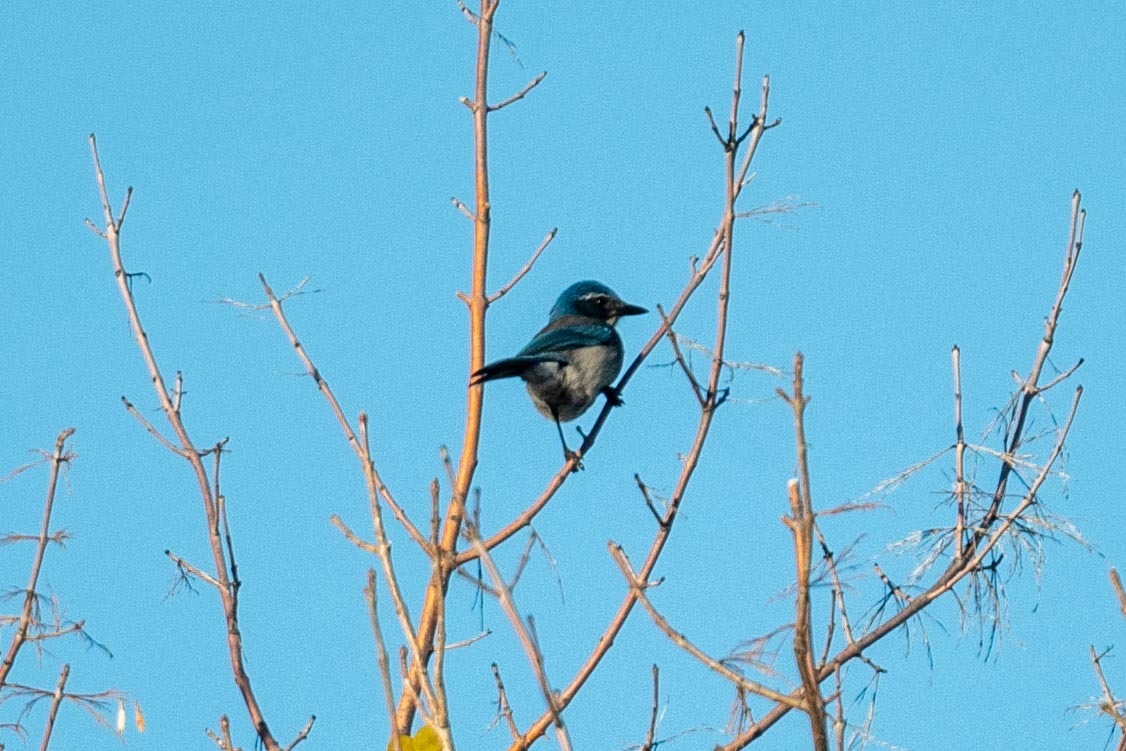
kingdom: Animalia
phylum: Chordata
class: Aves
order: Passeriformes
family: Corvidae
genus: Aphelocoma
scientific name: Aphelocoma californica
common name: California scrub-jay
